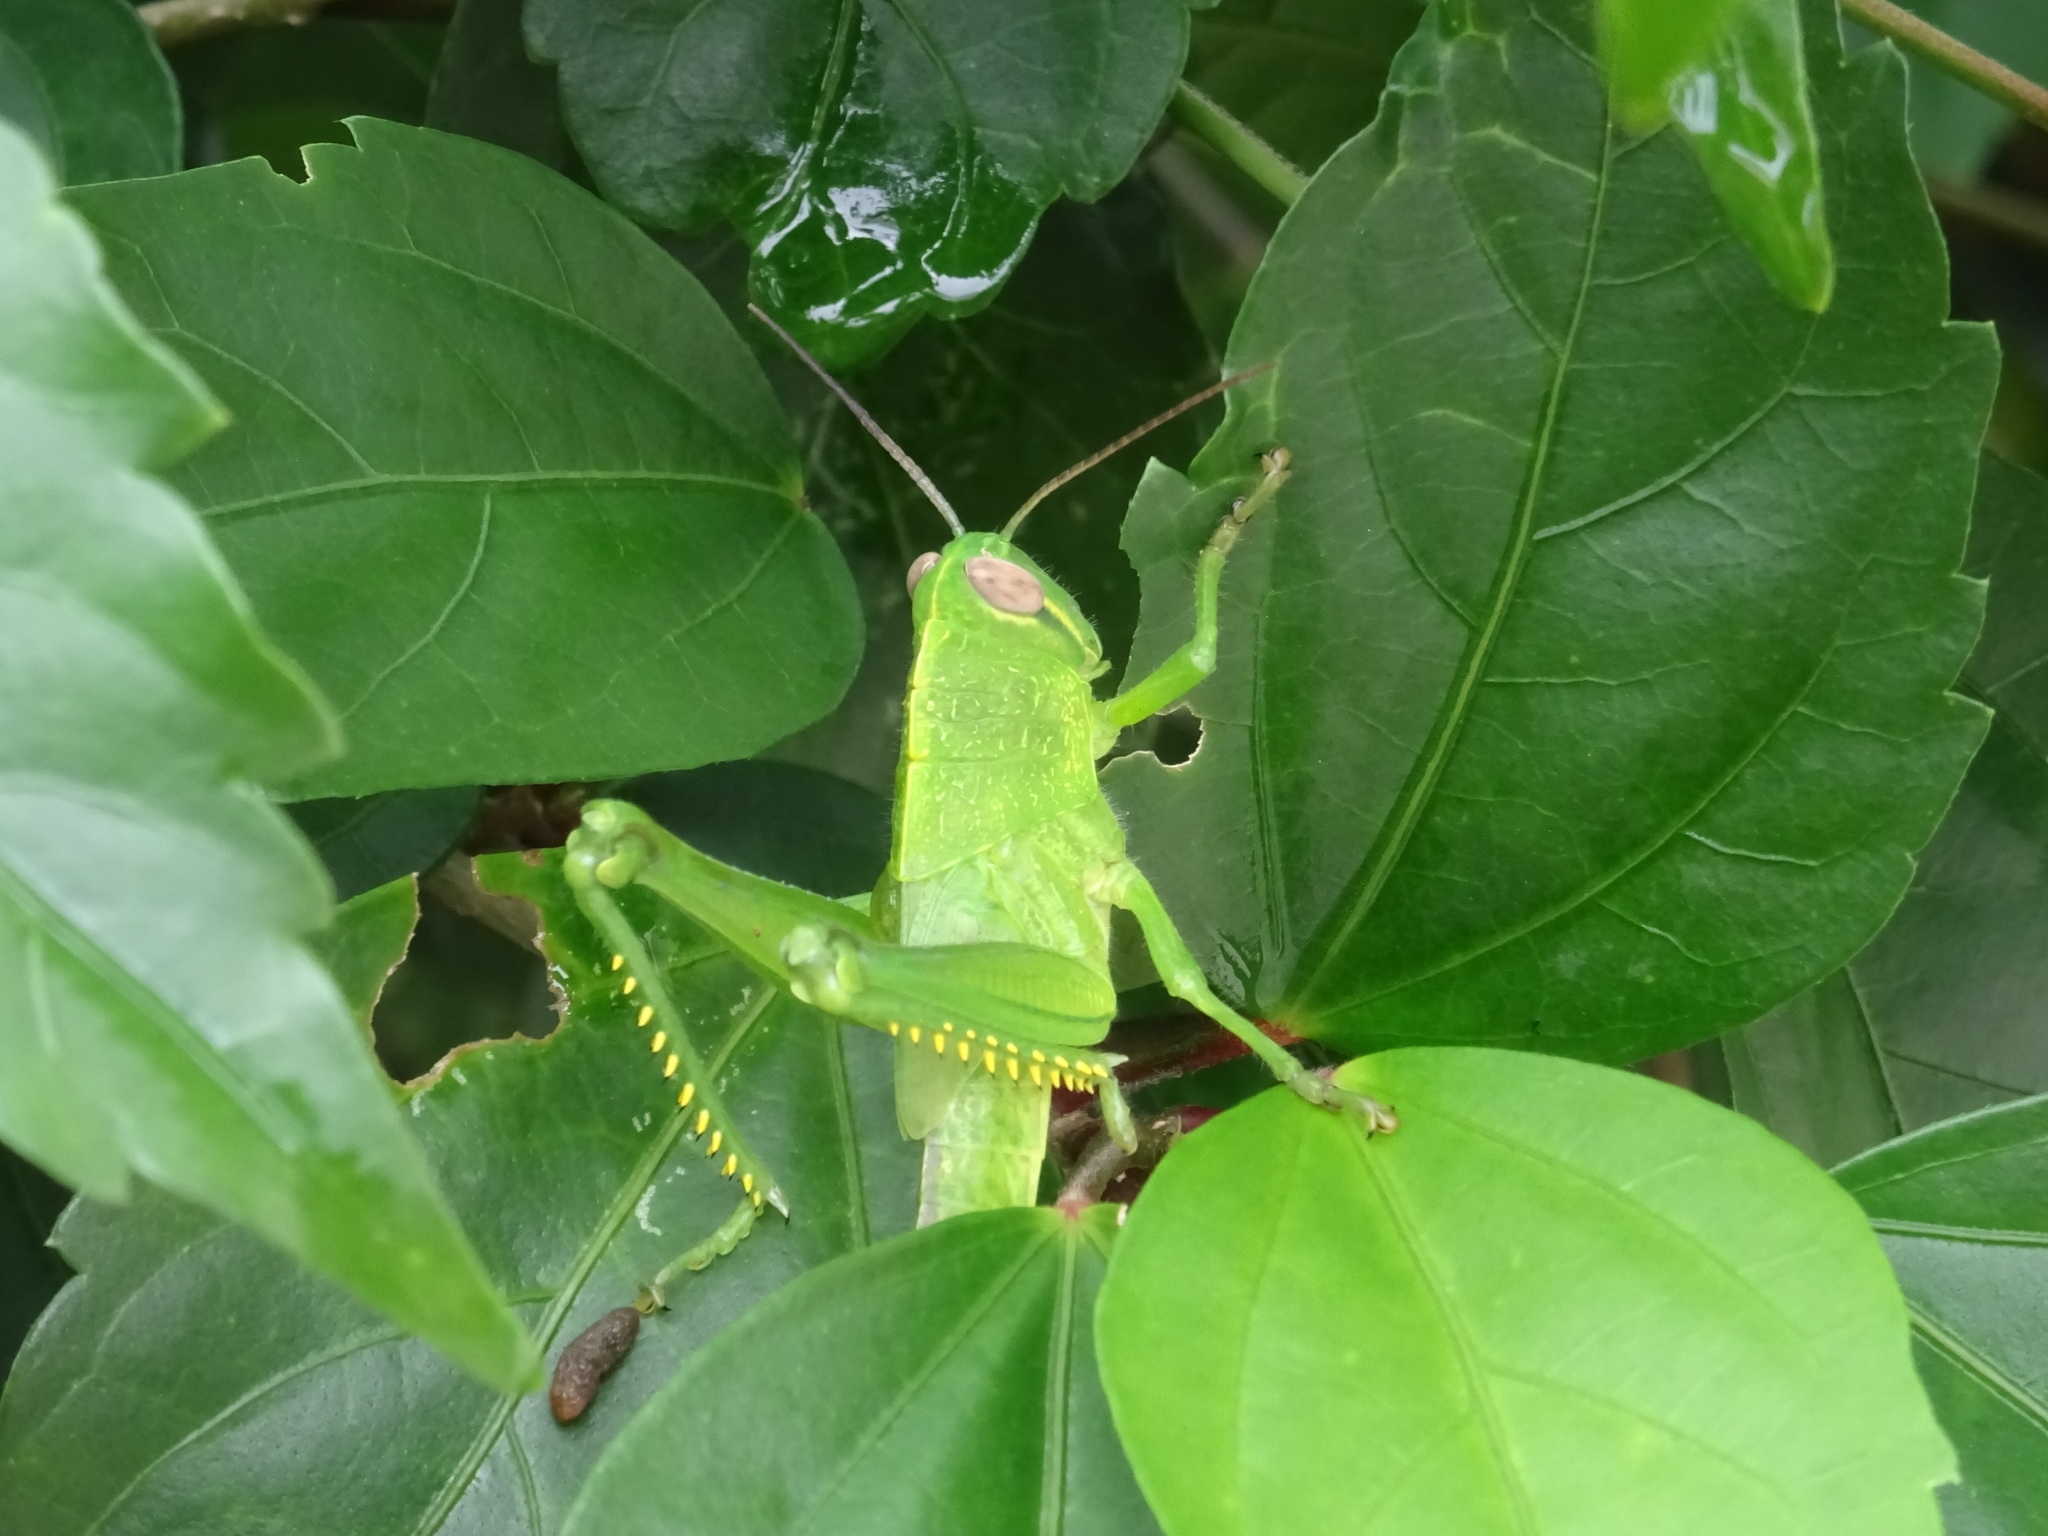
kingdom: Animalia
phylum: Arthropoda
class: Insecta
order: Orthoptera
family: Acrididae
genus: Valanga
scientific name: Valanga nigricornis
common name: Javanese bird grasshopper
